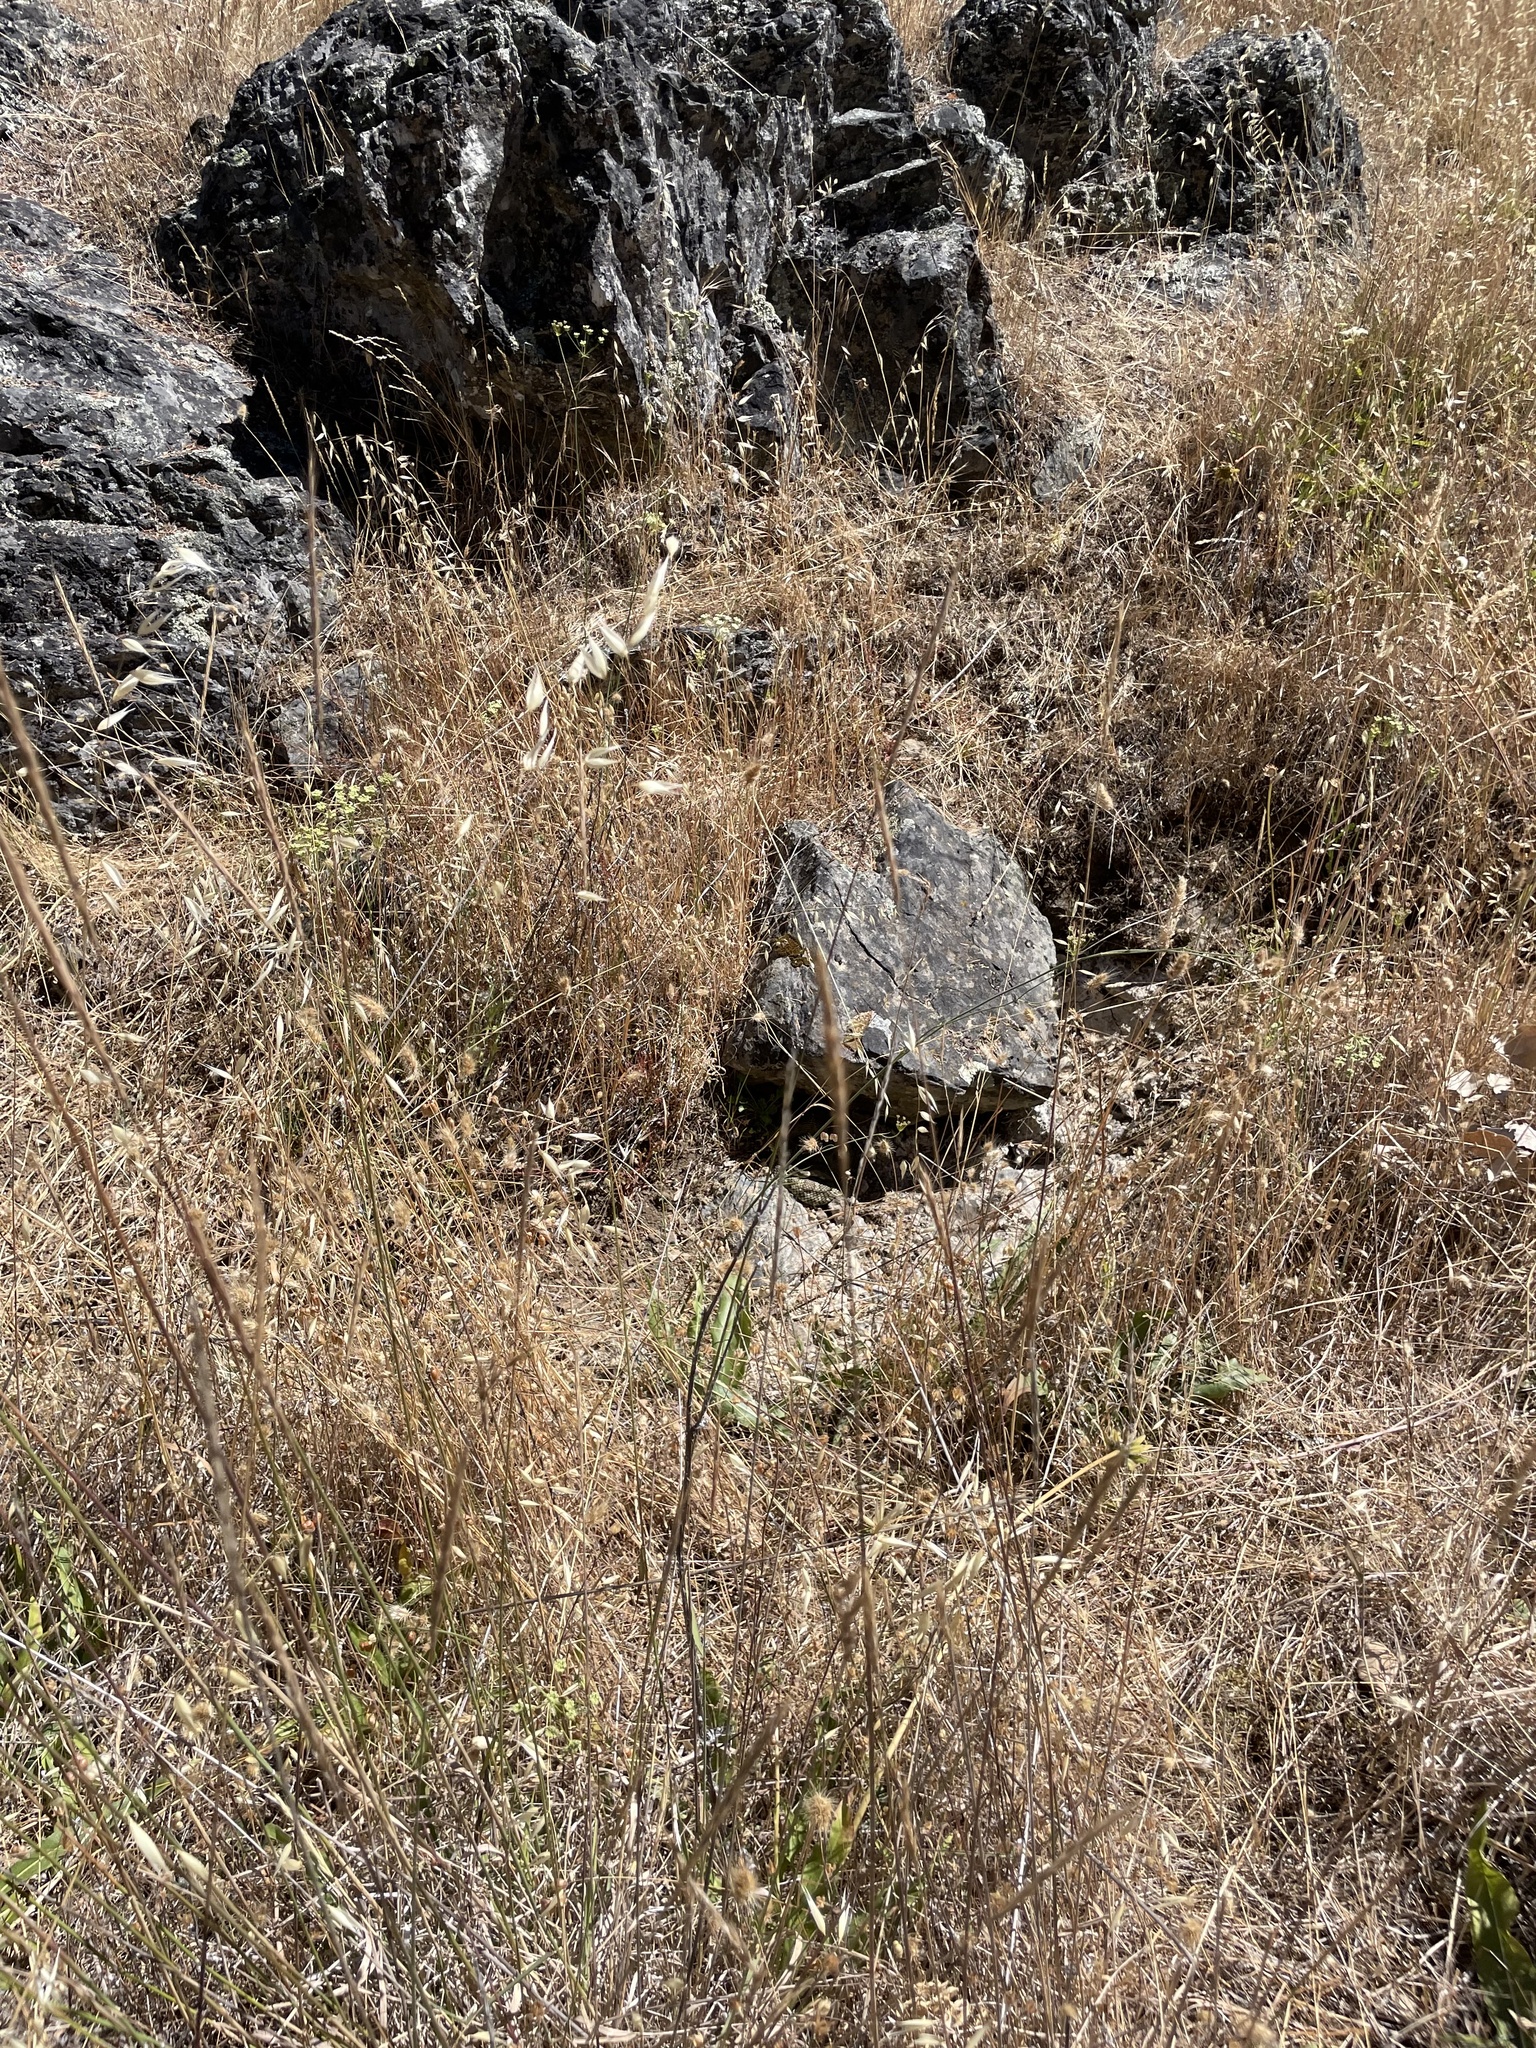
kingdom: Animalia
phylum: Chordata
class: Squamata
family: Viperidae
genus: Crotalus
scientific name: Crotalus oreganus
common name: Abyssus
